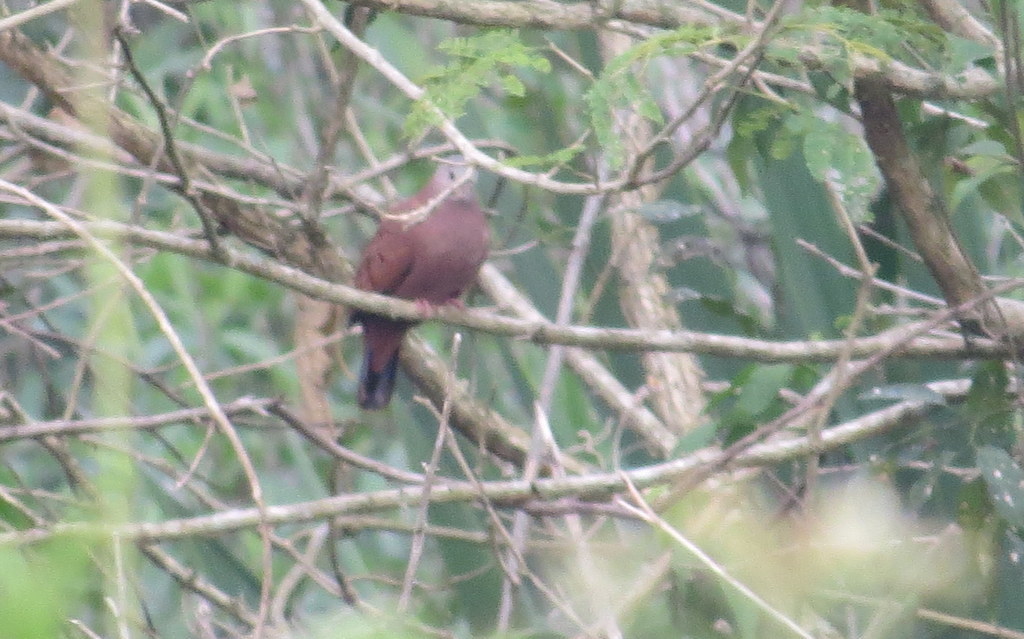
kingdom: Animalia
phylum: Chordata
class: Aves
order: Columbiformes
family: Columbidae
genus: Columbina
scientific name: Columbina talpacoti
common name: Ruddy ground dove
